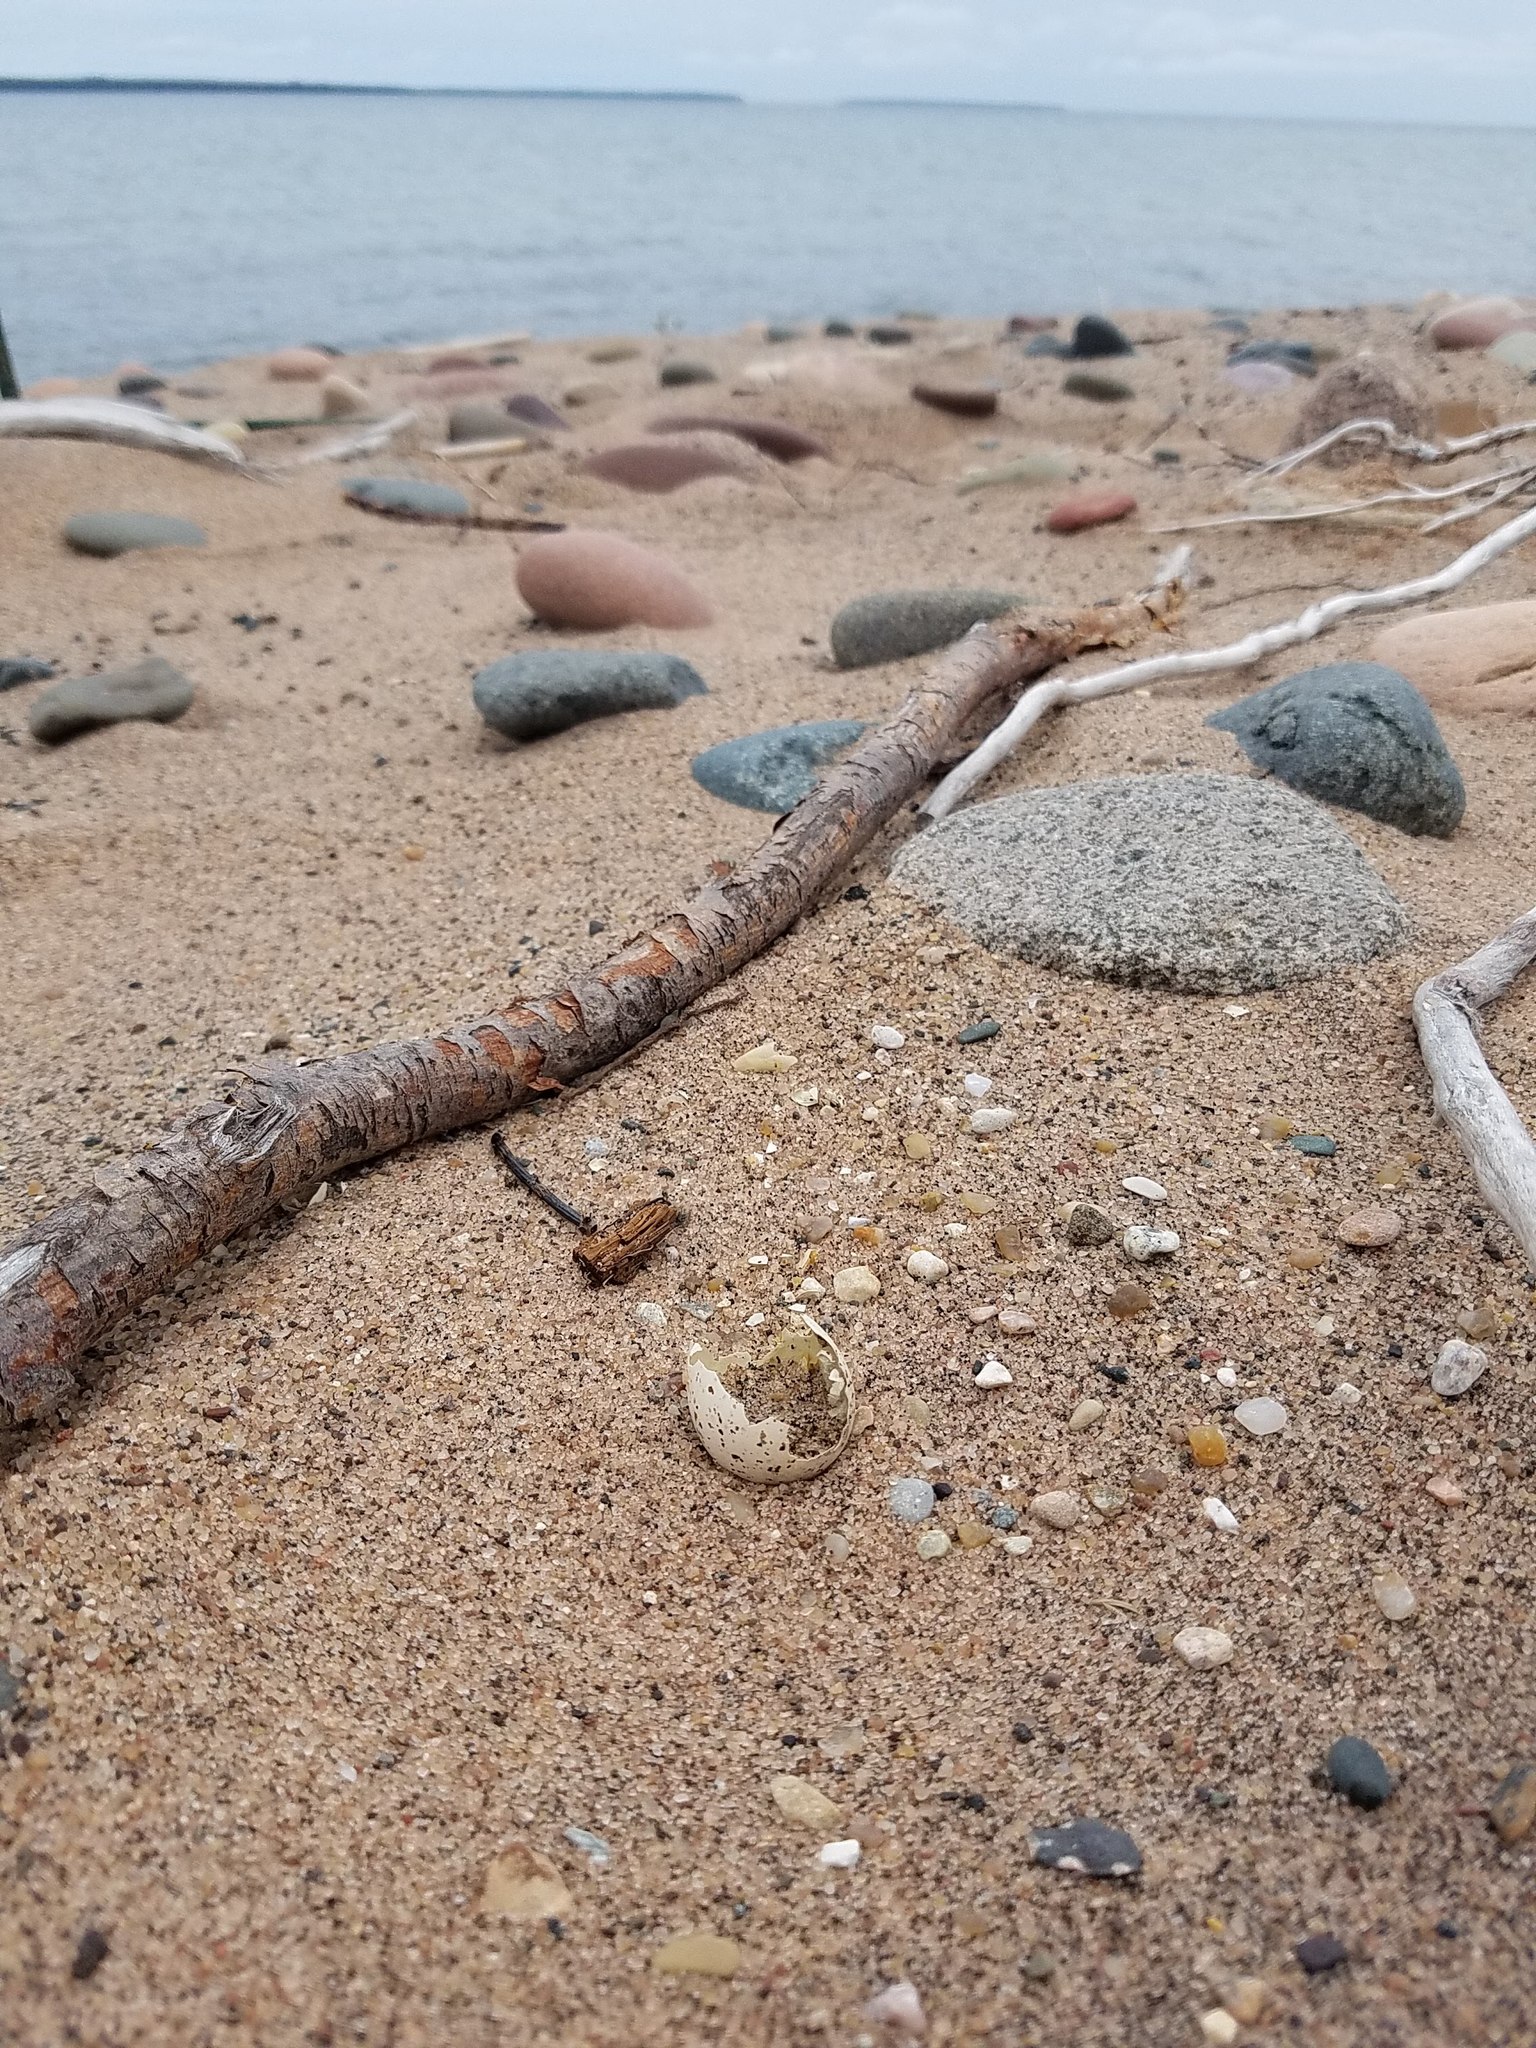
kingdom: Animalia
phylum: Chordata
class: Aves
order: Charadriiformes
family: Charadriidae
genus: Charadrius
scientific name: Charadrius melodus
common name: Piping plover
